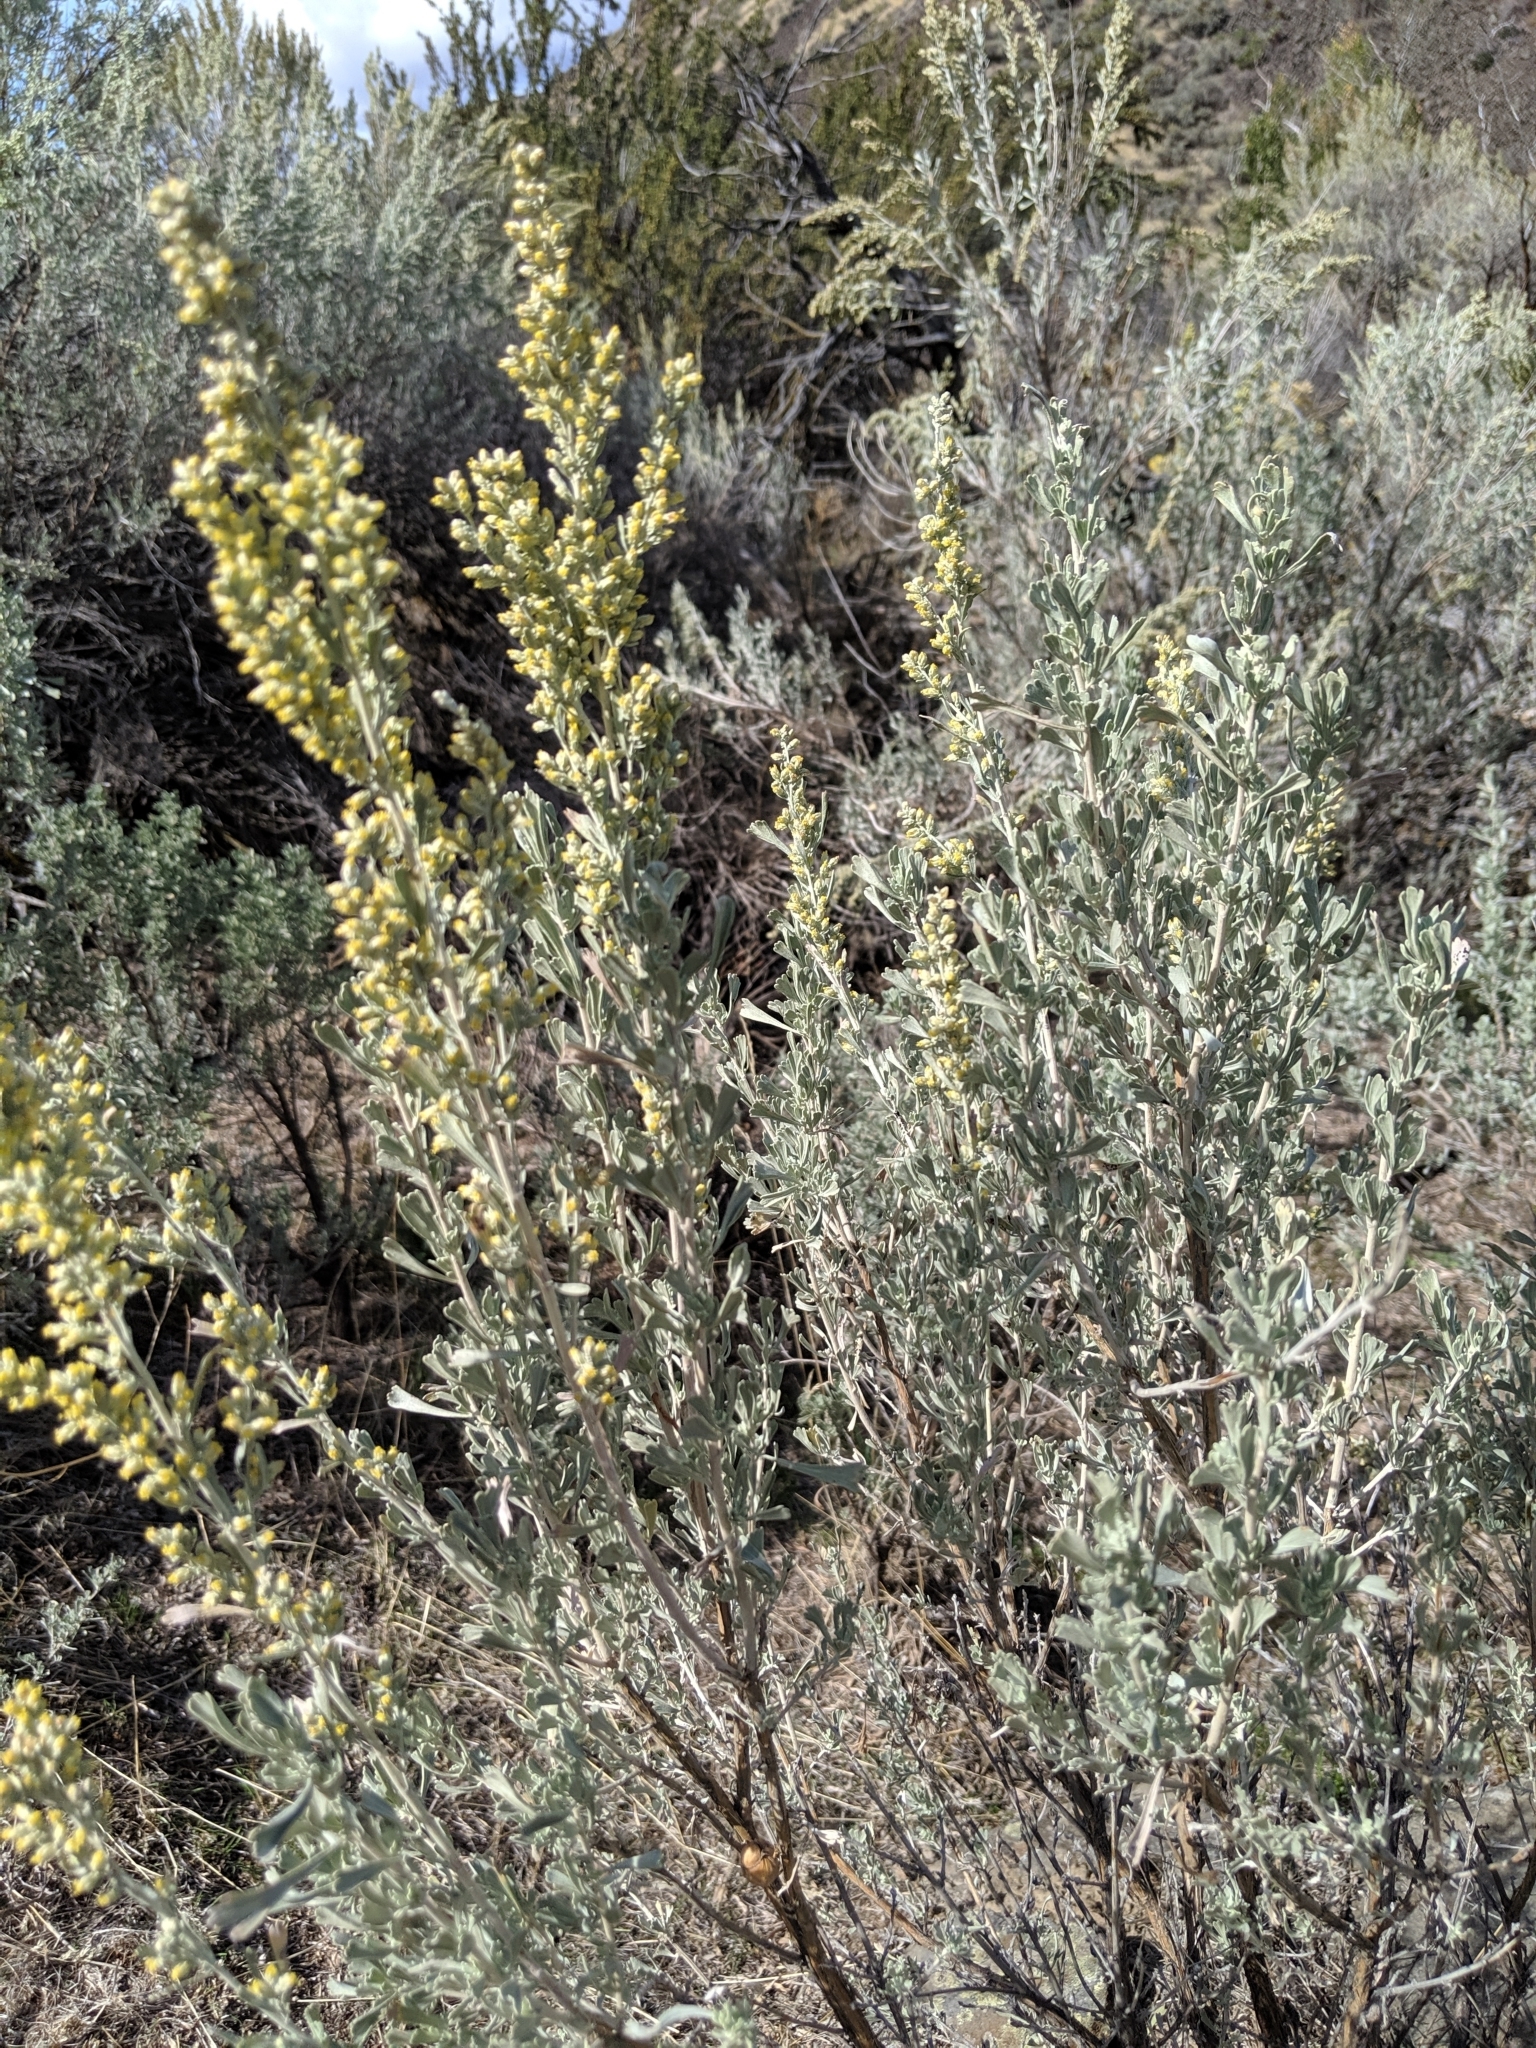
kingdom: Plantae
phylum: Tracheophyta
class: Magnoliopsida
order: Asterales
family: Asteraceae
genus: Artemisia
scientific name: Artemisia tridentata
